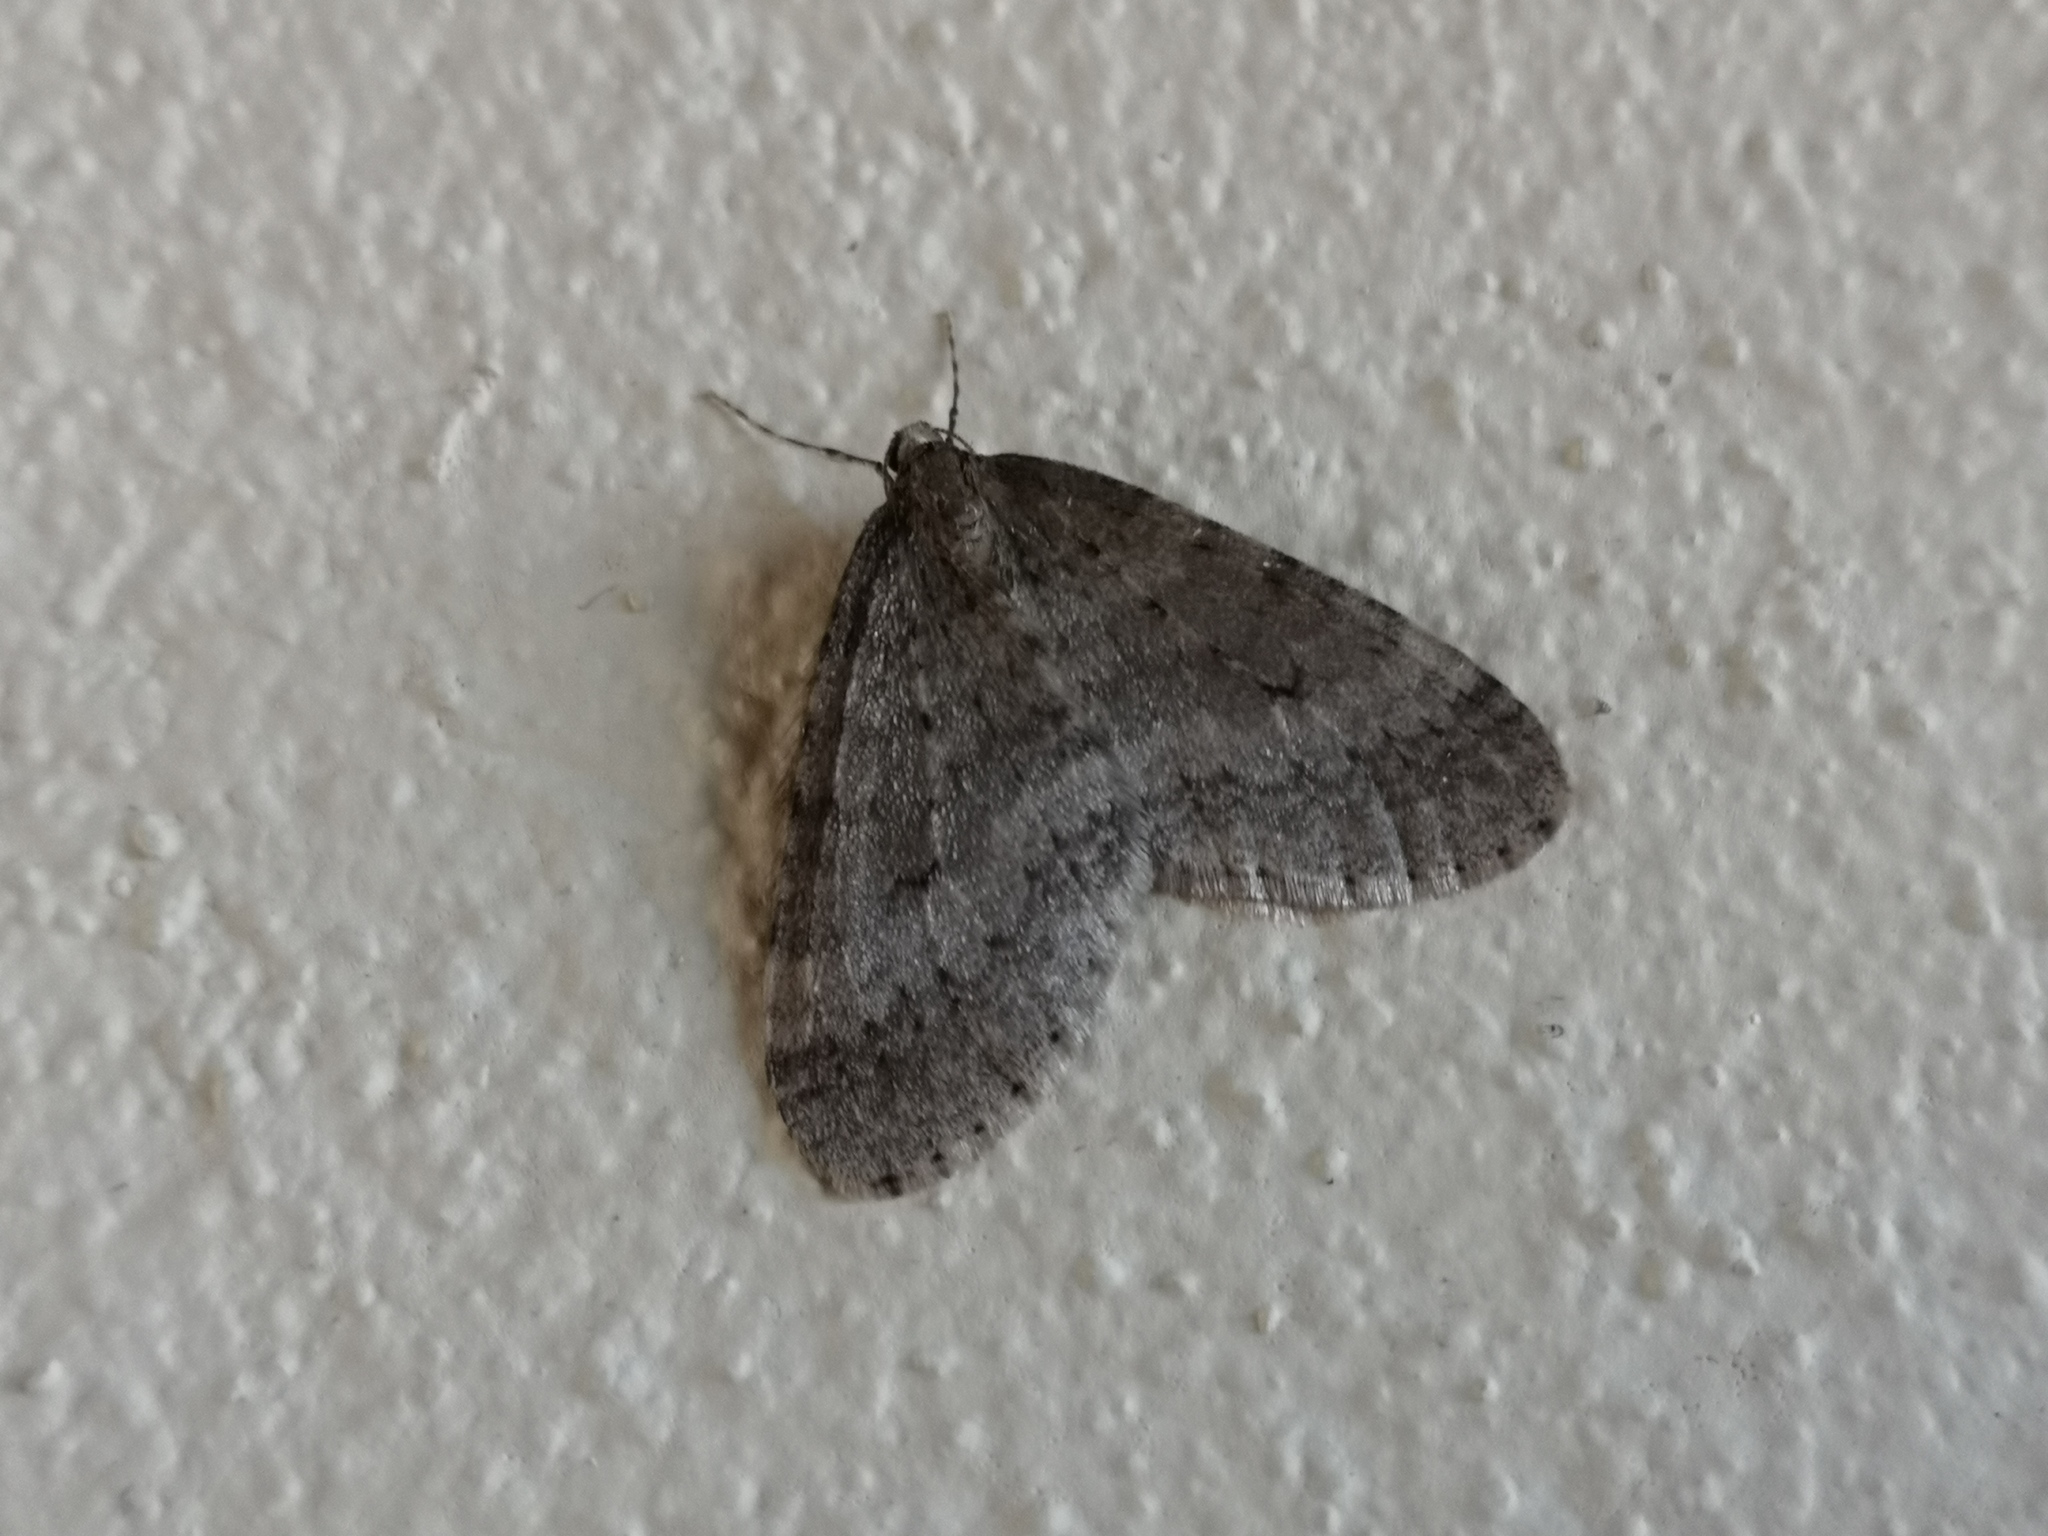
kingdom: Animalia
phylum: Arthropoda
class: Insecta
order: Lepidoptera
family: Geometridae
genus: Operophtera
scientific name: Operophtera brumata
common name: Winter moth
